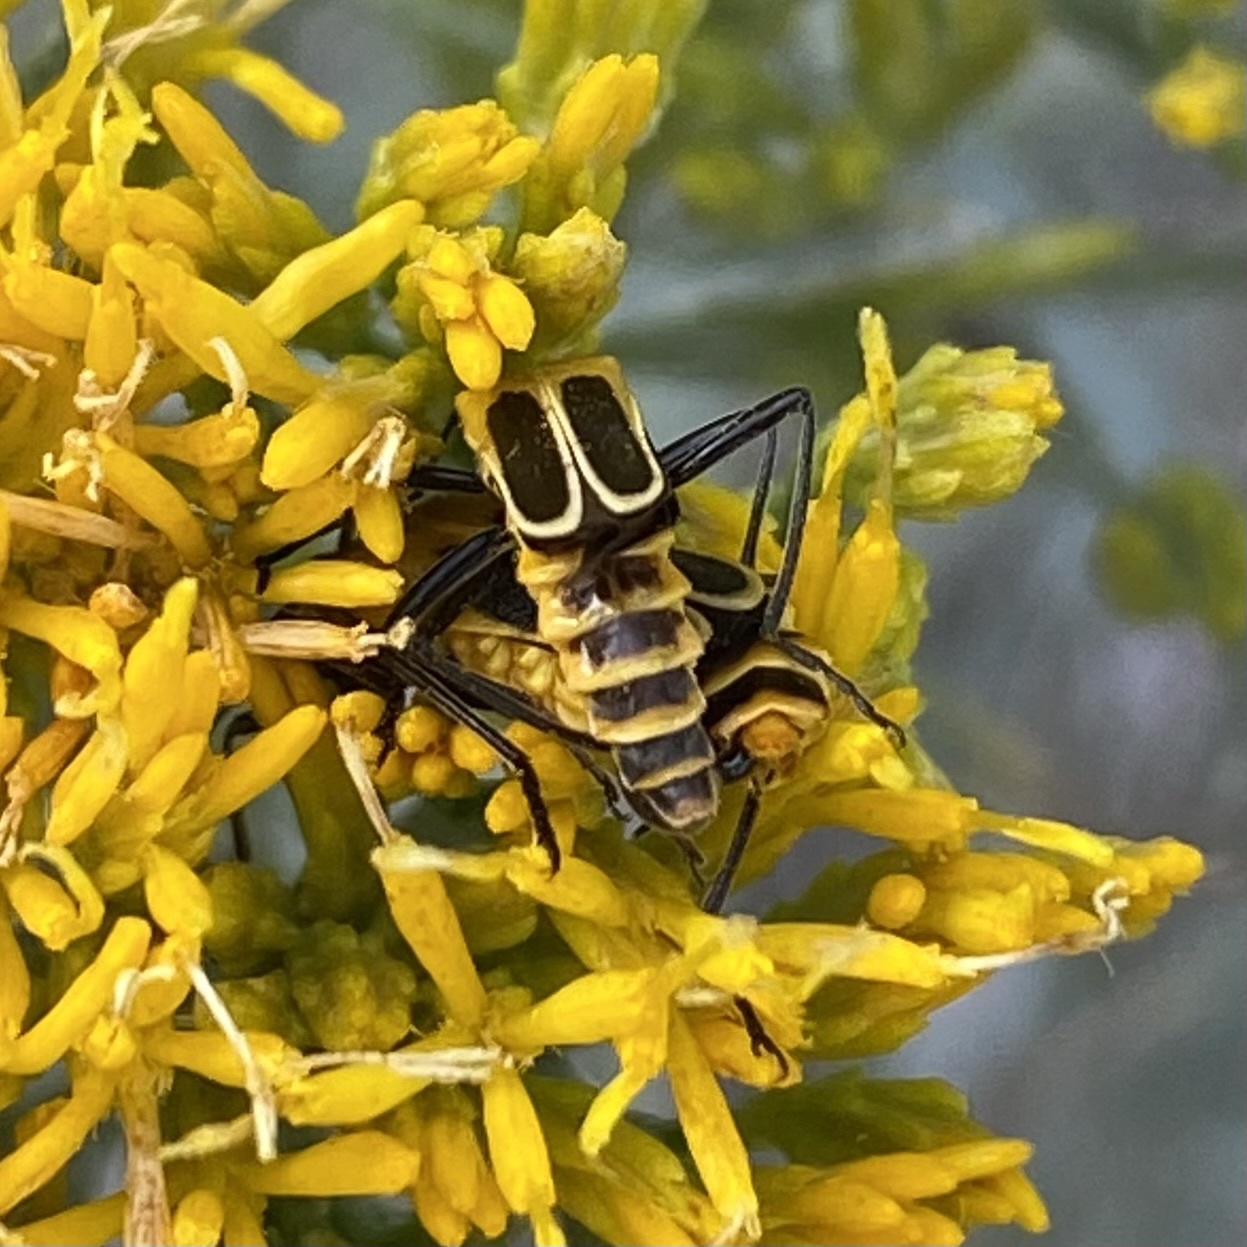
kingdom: Animalia
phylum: Arthropoda
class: Insecta
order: Coleoptera
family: Cantharidae
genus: Chauliognathus
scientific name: Chauliognathus lewisi
